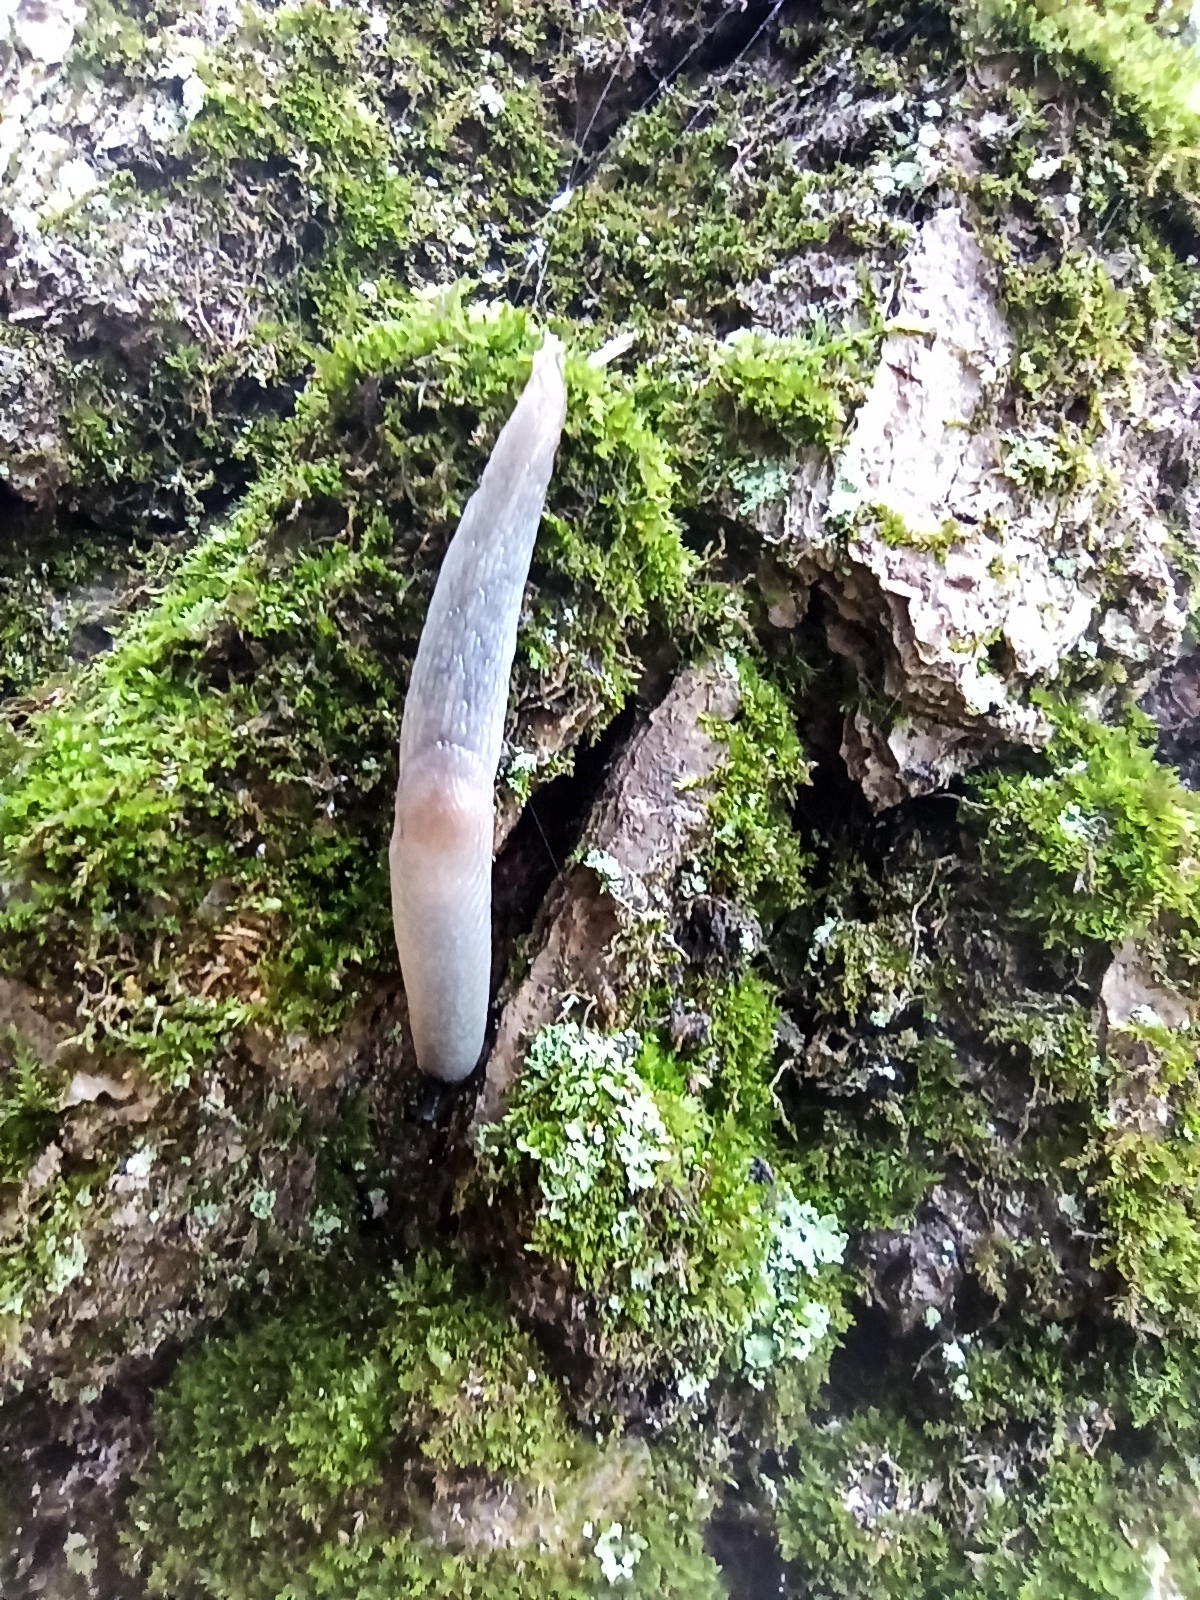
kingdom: Animalia
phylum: Mollusca
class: Gastropoda
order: Stylommatophora
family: Agriolimacidae
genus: Krynickillus
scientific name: Krynickillus melanocephalus
